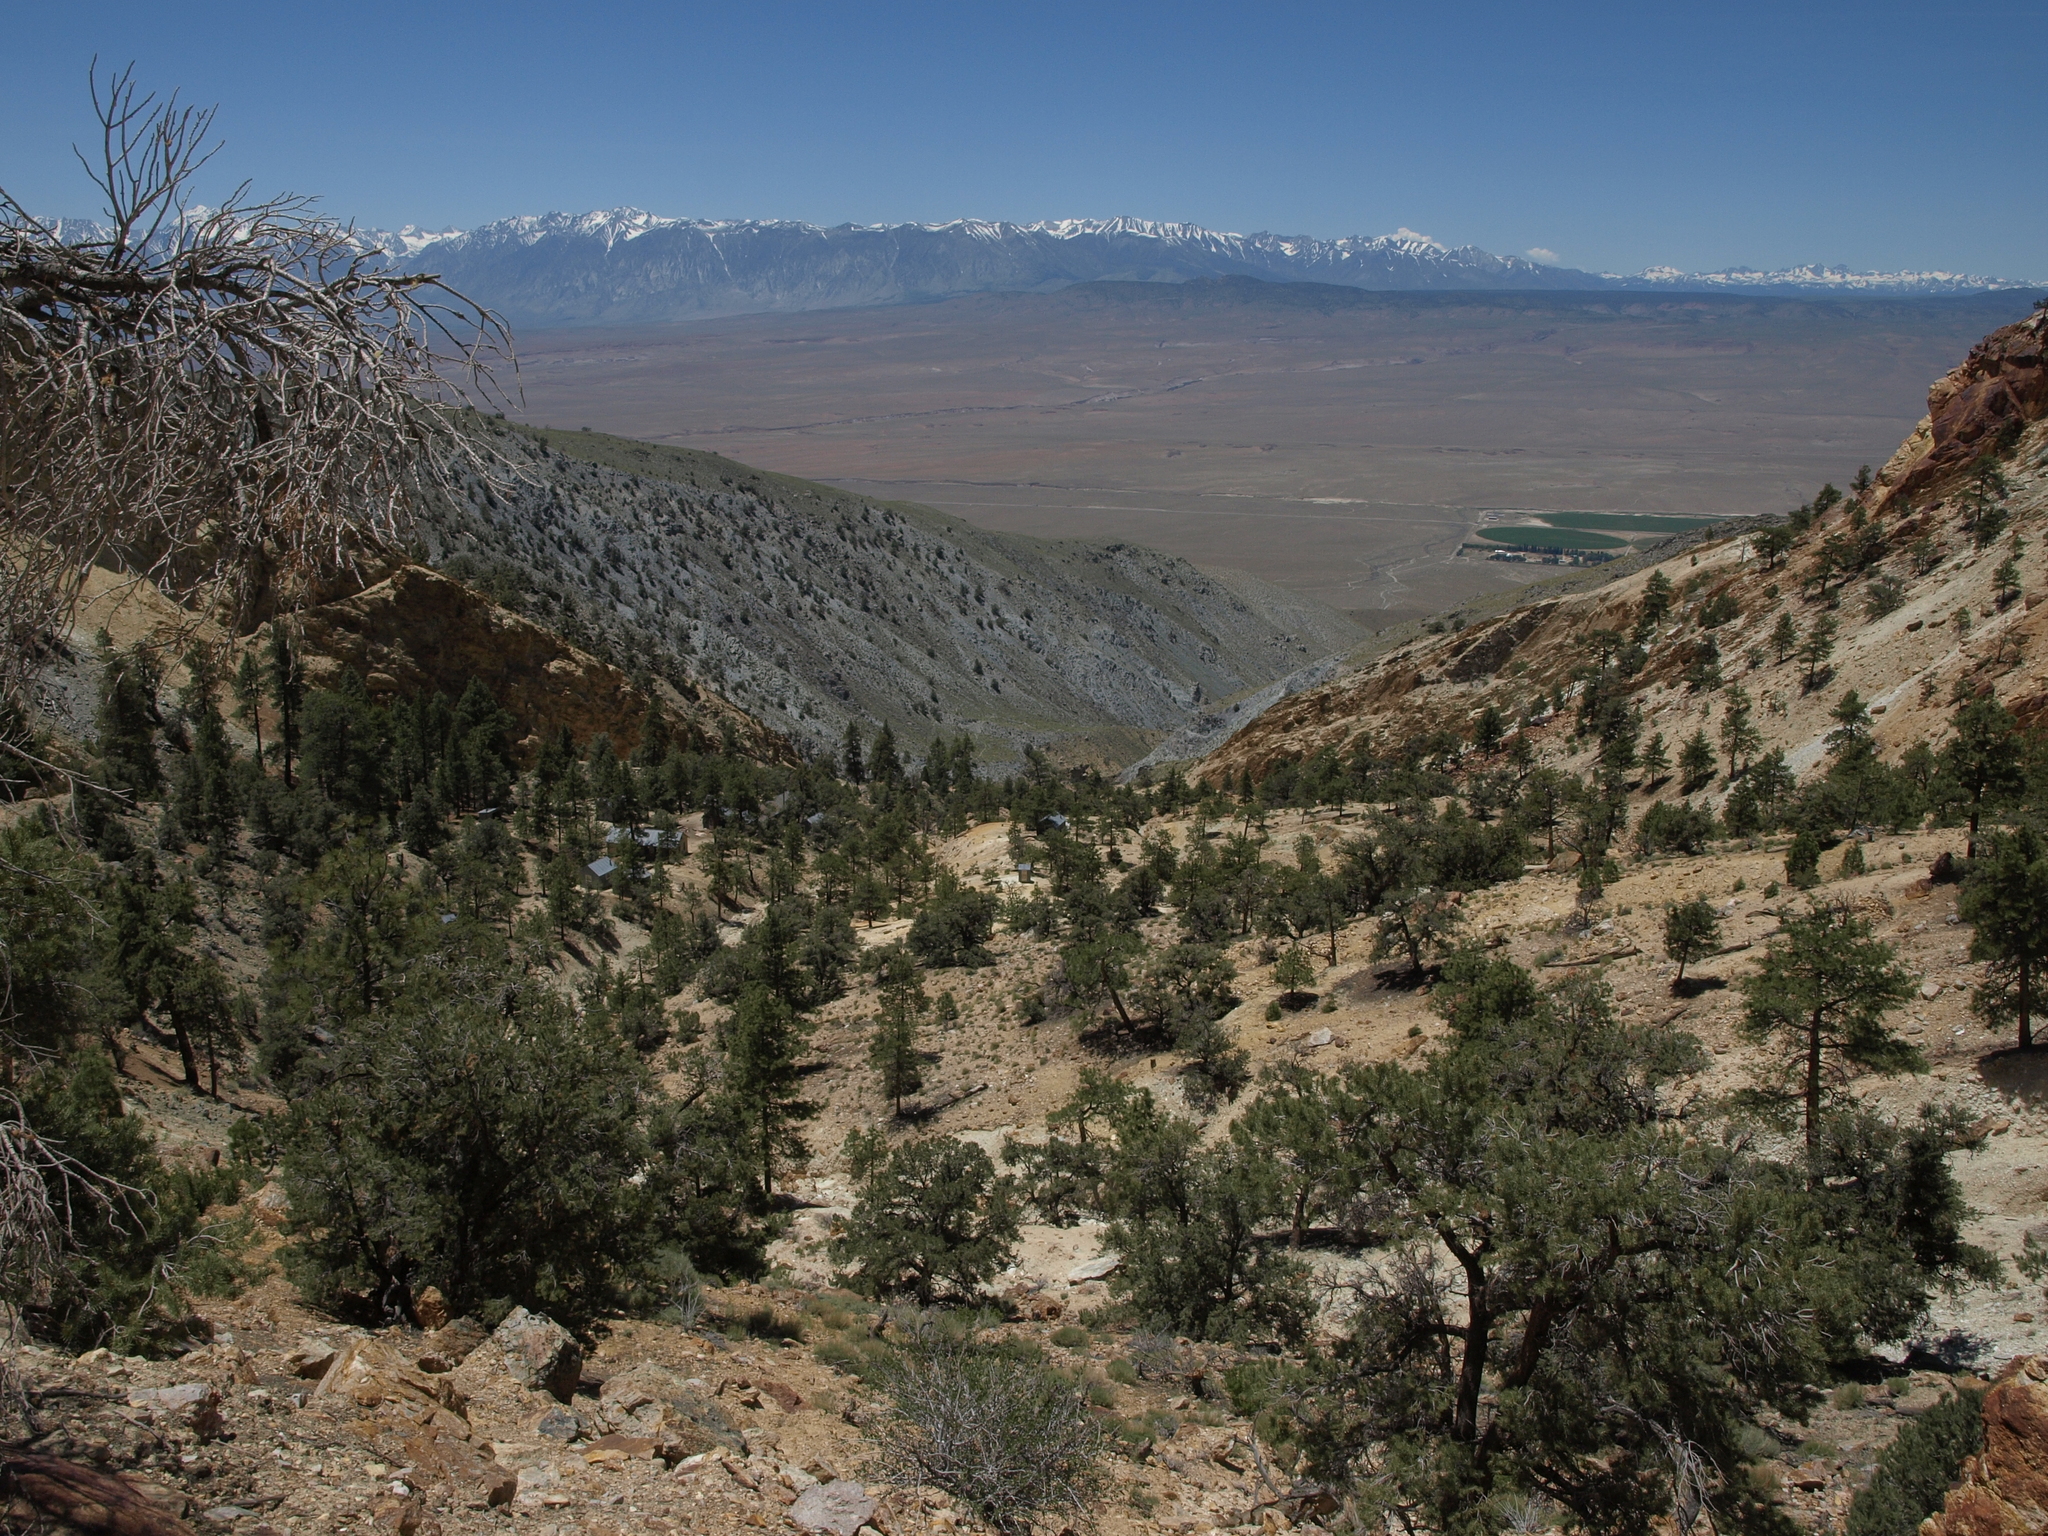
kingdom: Plantae
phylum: Tracheophyta
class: Pinopsida
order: Pinales
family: Pinaceae
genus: Pinus
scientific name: Pinus ponderosa
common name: Western yellow-pine
